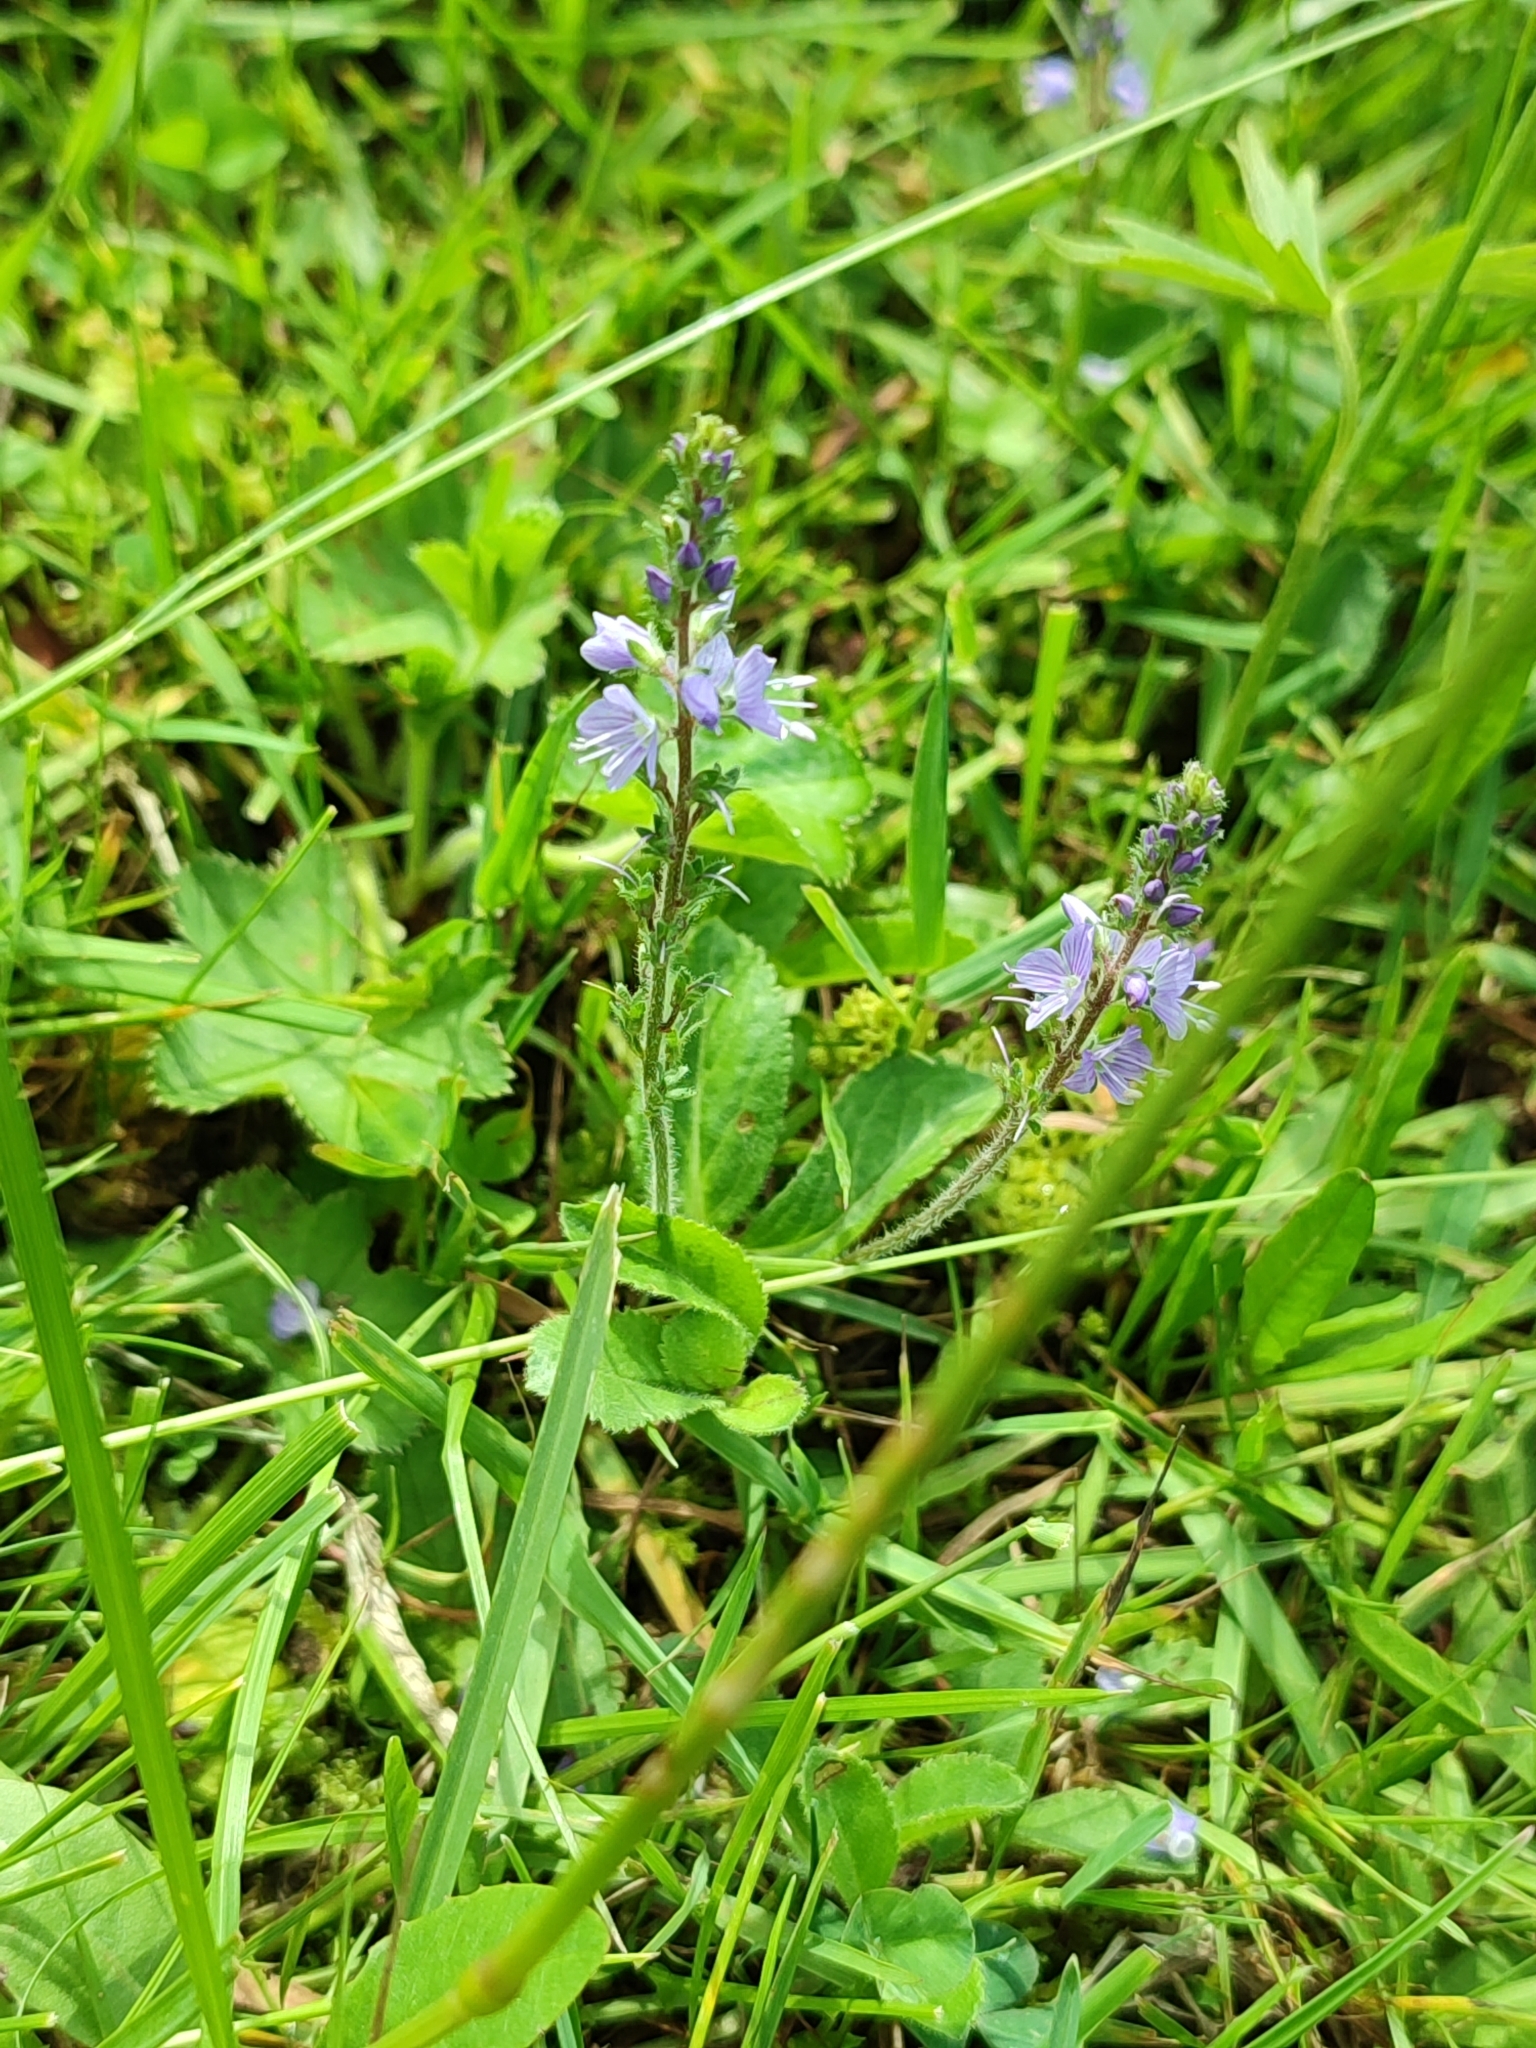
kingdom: Plantae
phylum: Tracheophyta
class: Magnoliopsida
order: Lamiales
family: Plantaginaceae
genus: Veronica
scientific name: Veronica officinalis
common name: Common speedwell
